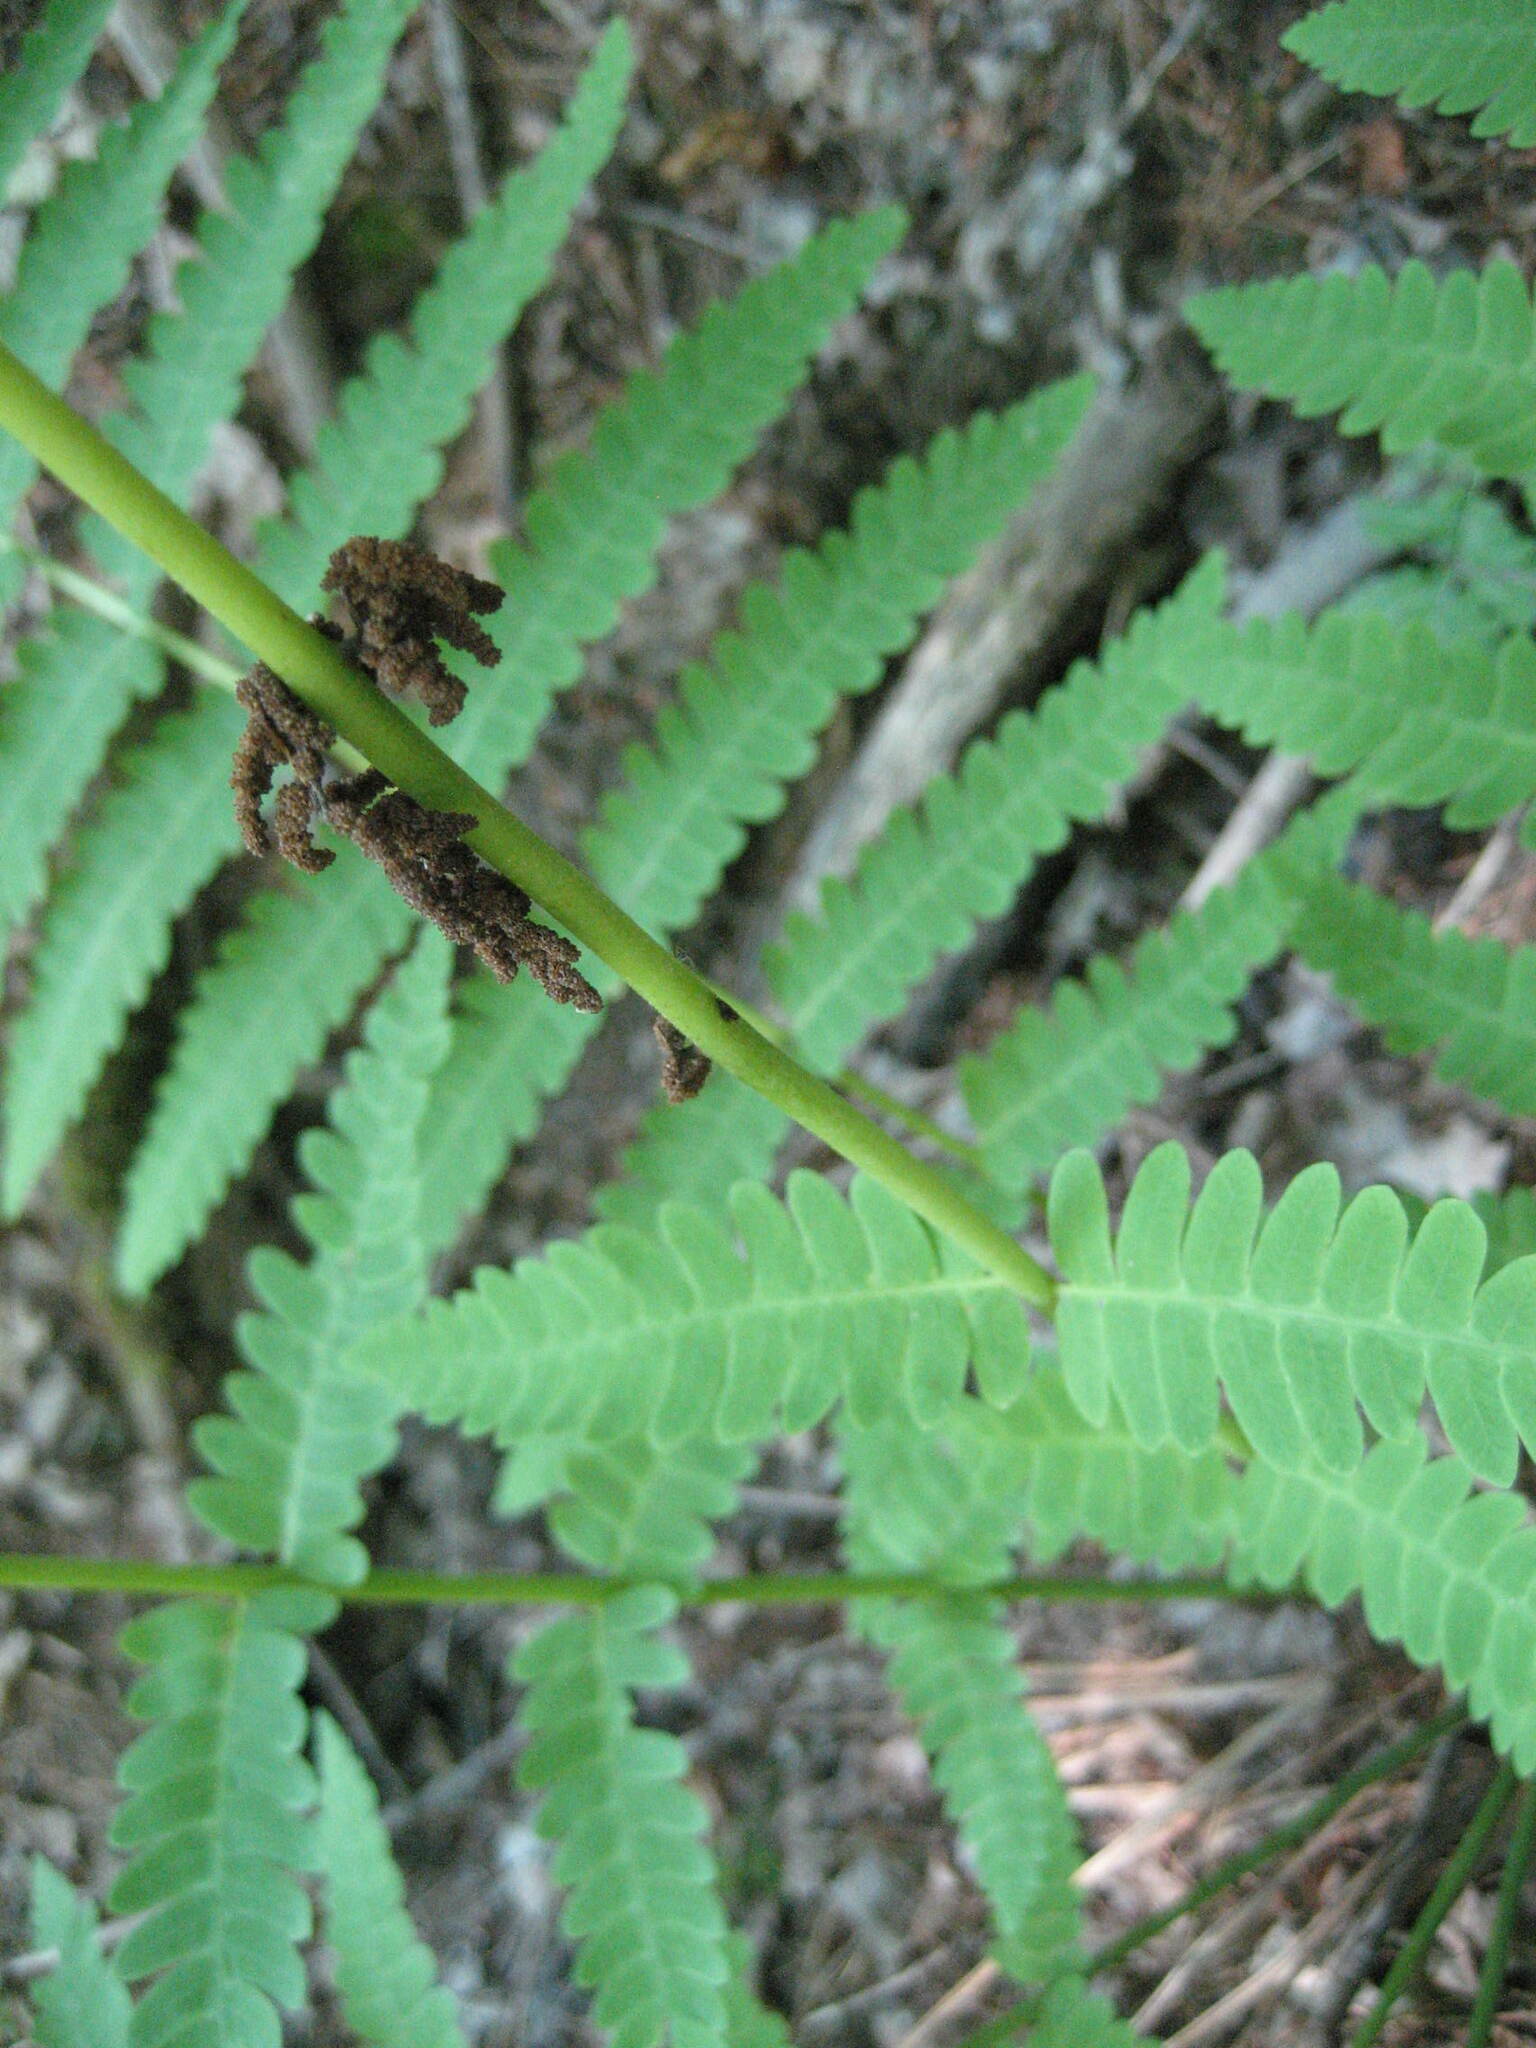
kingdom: Plantae
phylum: Tracheophyta
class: Polypodiopsida
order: Osmundales
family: Osmundaceae
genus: Claytosmunda
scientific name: Claytosmunda claytoniana
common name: Clayton's fern
